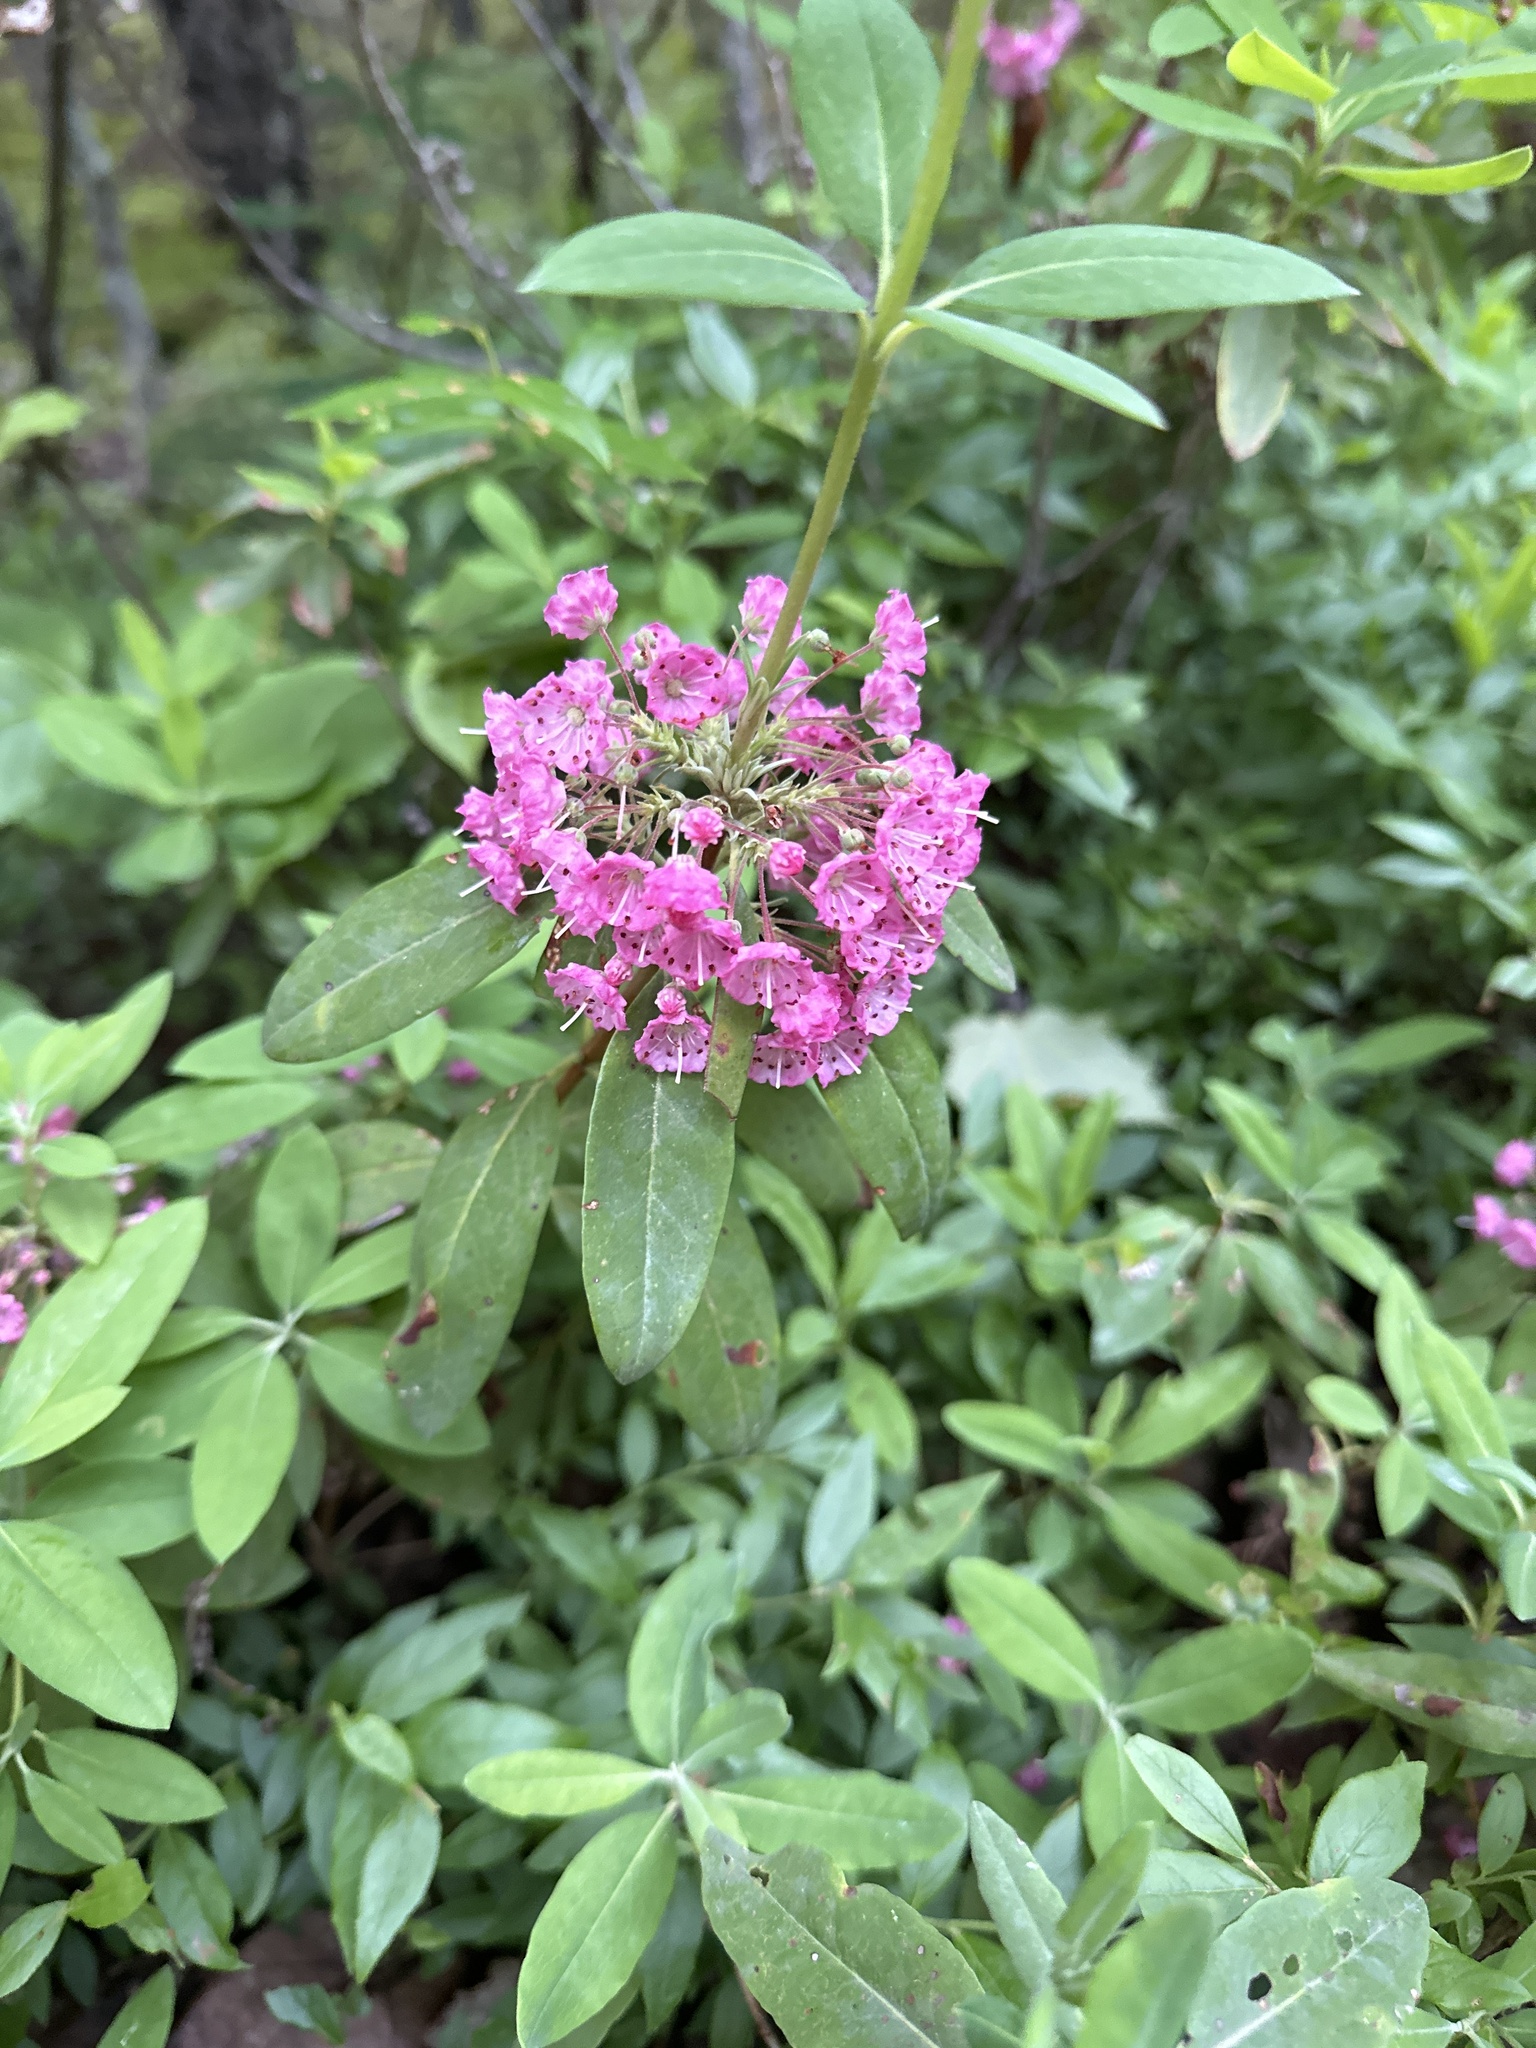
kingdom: Plantae
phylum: Tracheophyta
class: Magnoliopsida
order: Ericales
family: Ericaceae
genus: Kalmia
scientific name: Kalmia angustifolia
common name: Sheep-laurel
